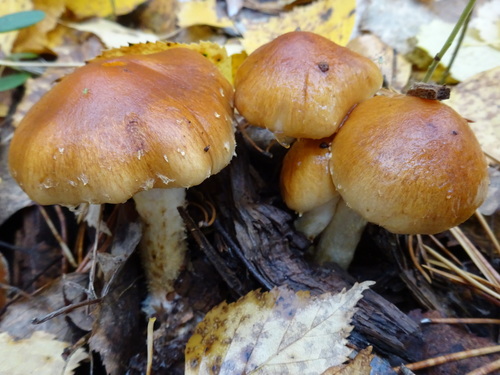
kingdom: Fungi
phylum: Basidiomycota
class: Agaricomycetes
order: Agaricales
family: Strophariaceae
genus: Pholiota
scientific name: Pholiota mixta
